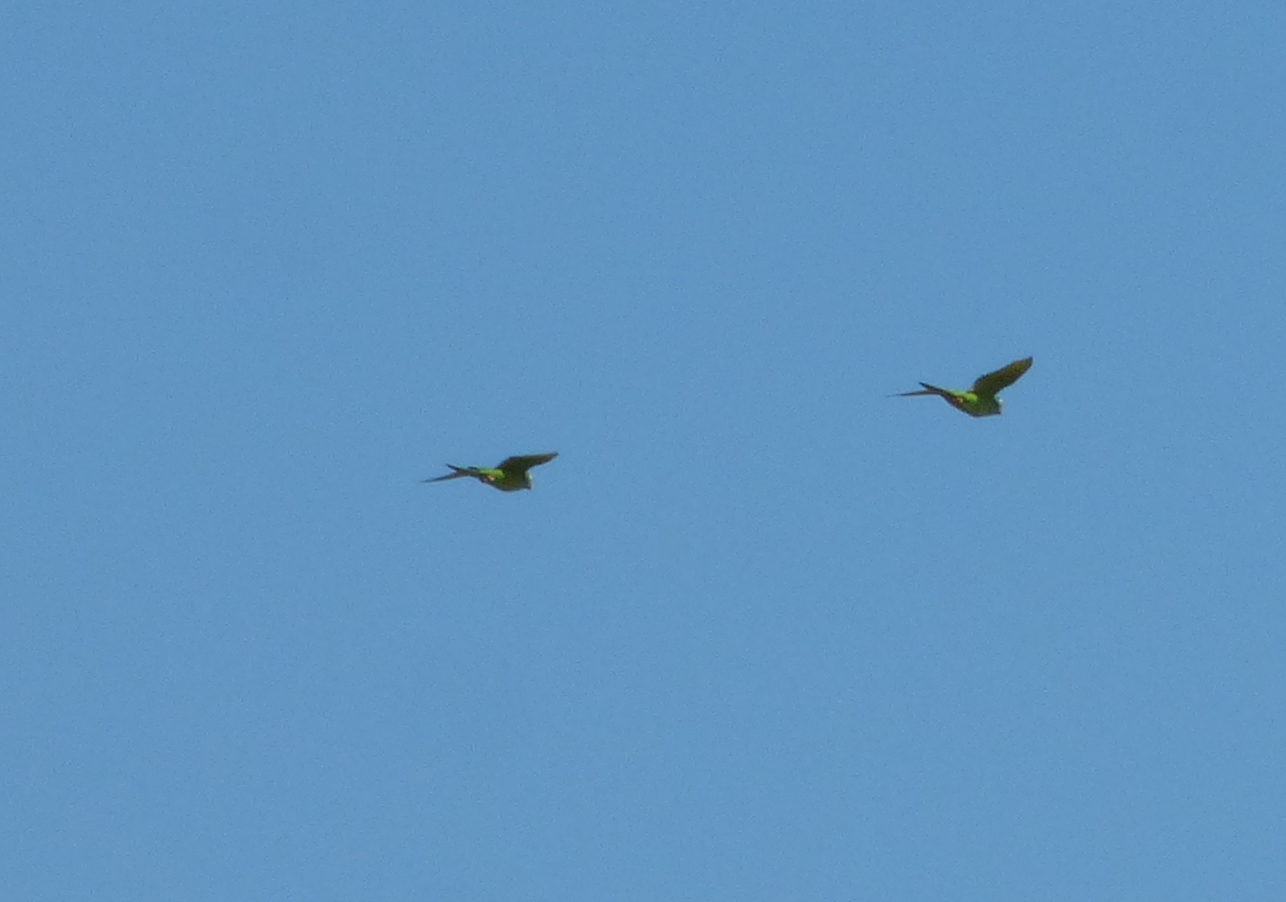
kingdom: Animalia
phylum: Chordata
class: Aves
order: Psittaciformes
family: Psittacidae
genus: Aratinga
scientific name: Aratinga acuticaudata
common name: Blue-crowned parakeet
